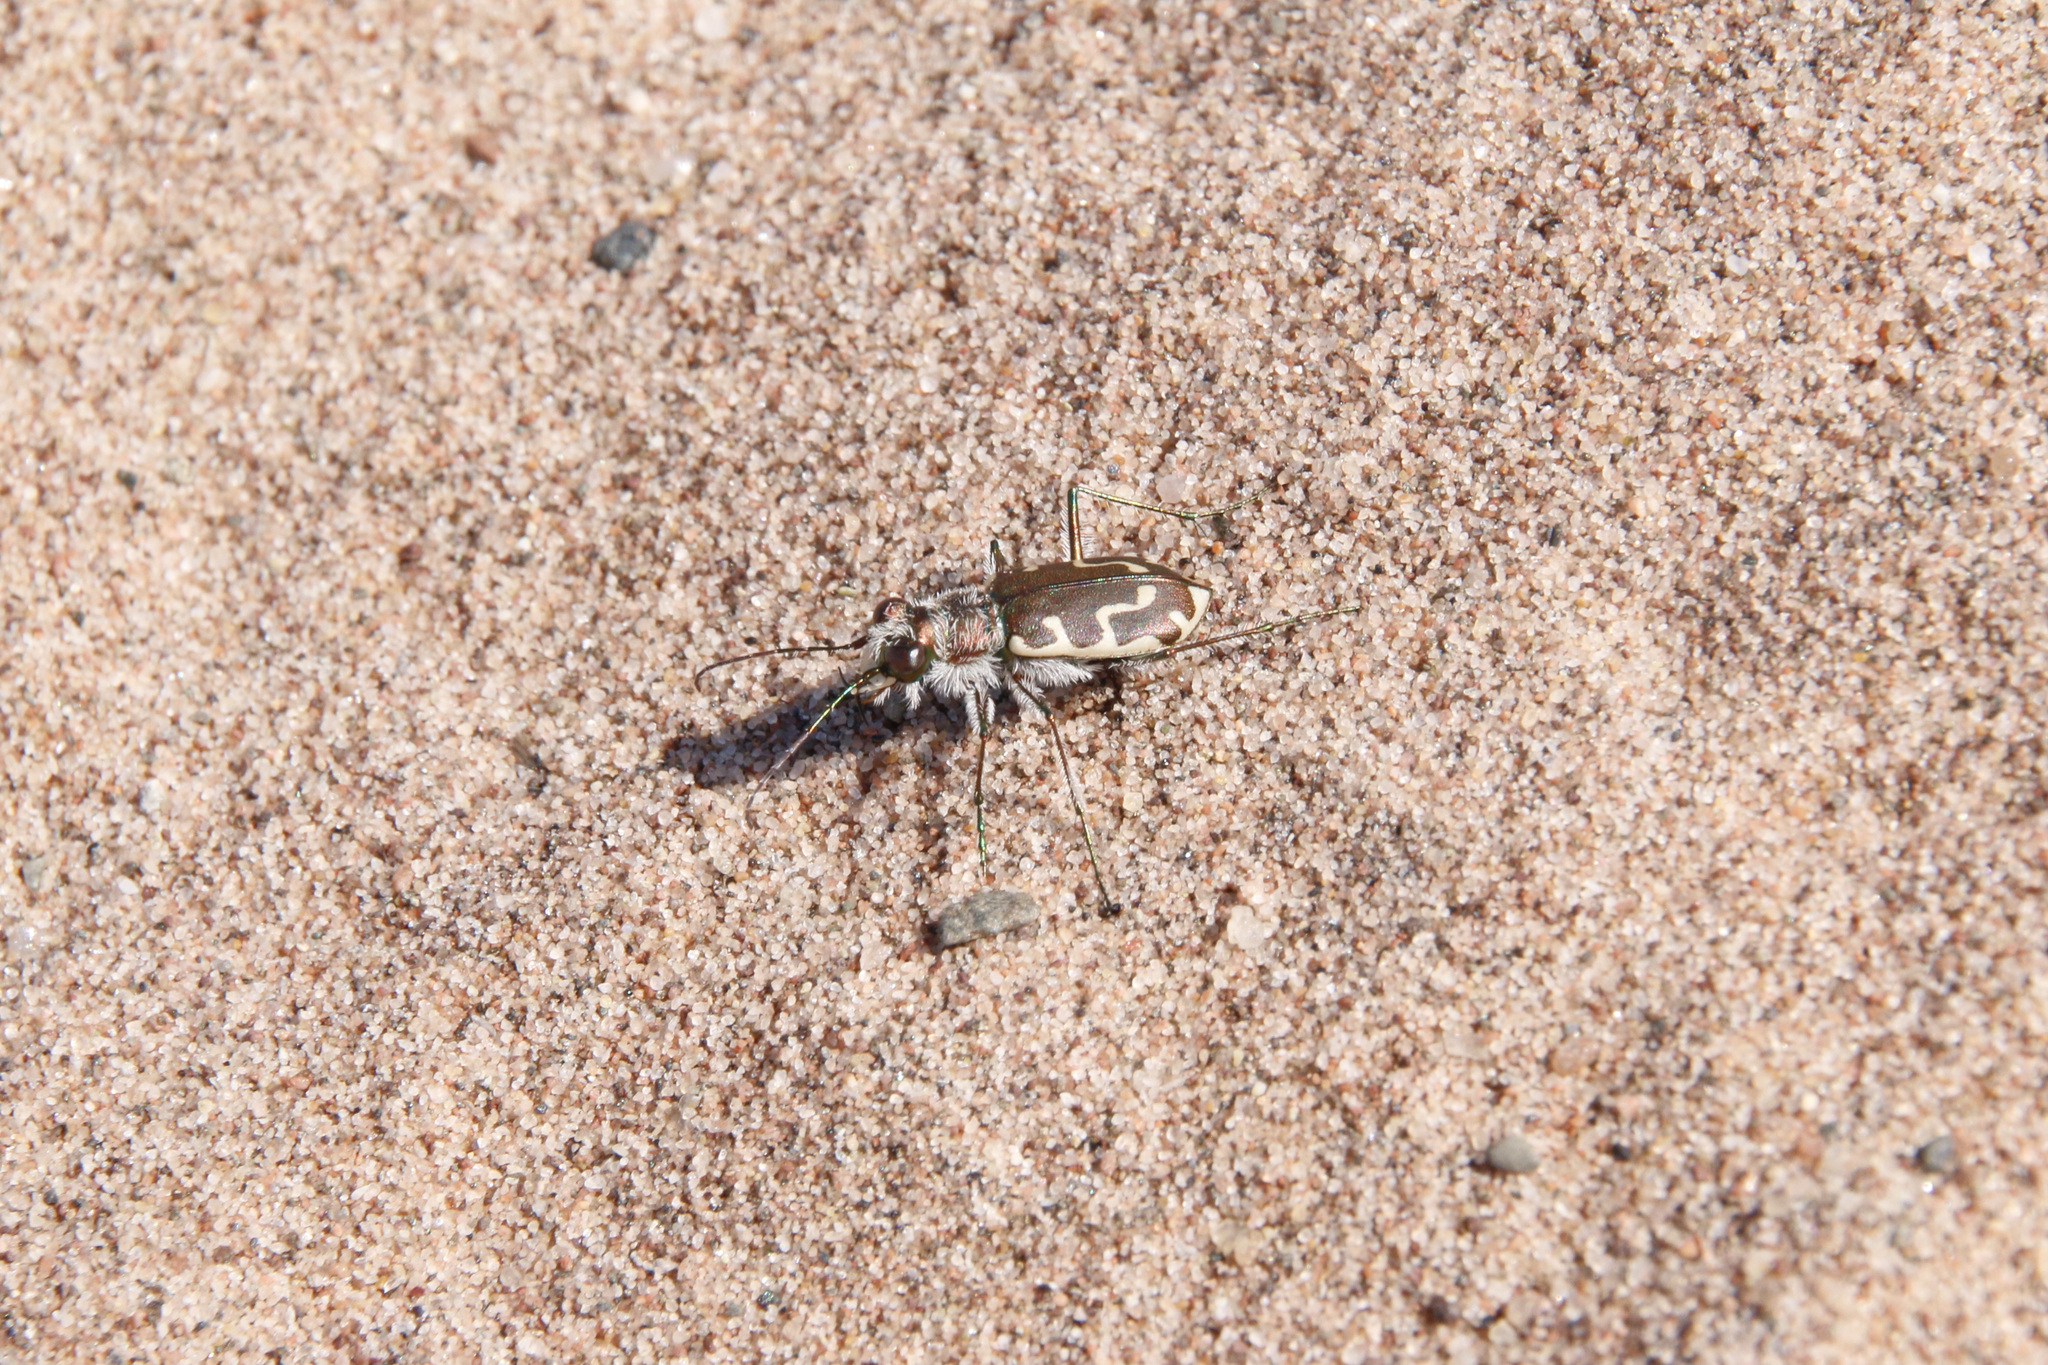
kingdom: Animalia
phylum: Arthropoda
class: Insecta
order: Coleoptera
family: Carabidae
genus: Cicindela
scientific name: Cicindela hirticollis
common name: Hairy-necked tiger beetle
